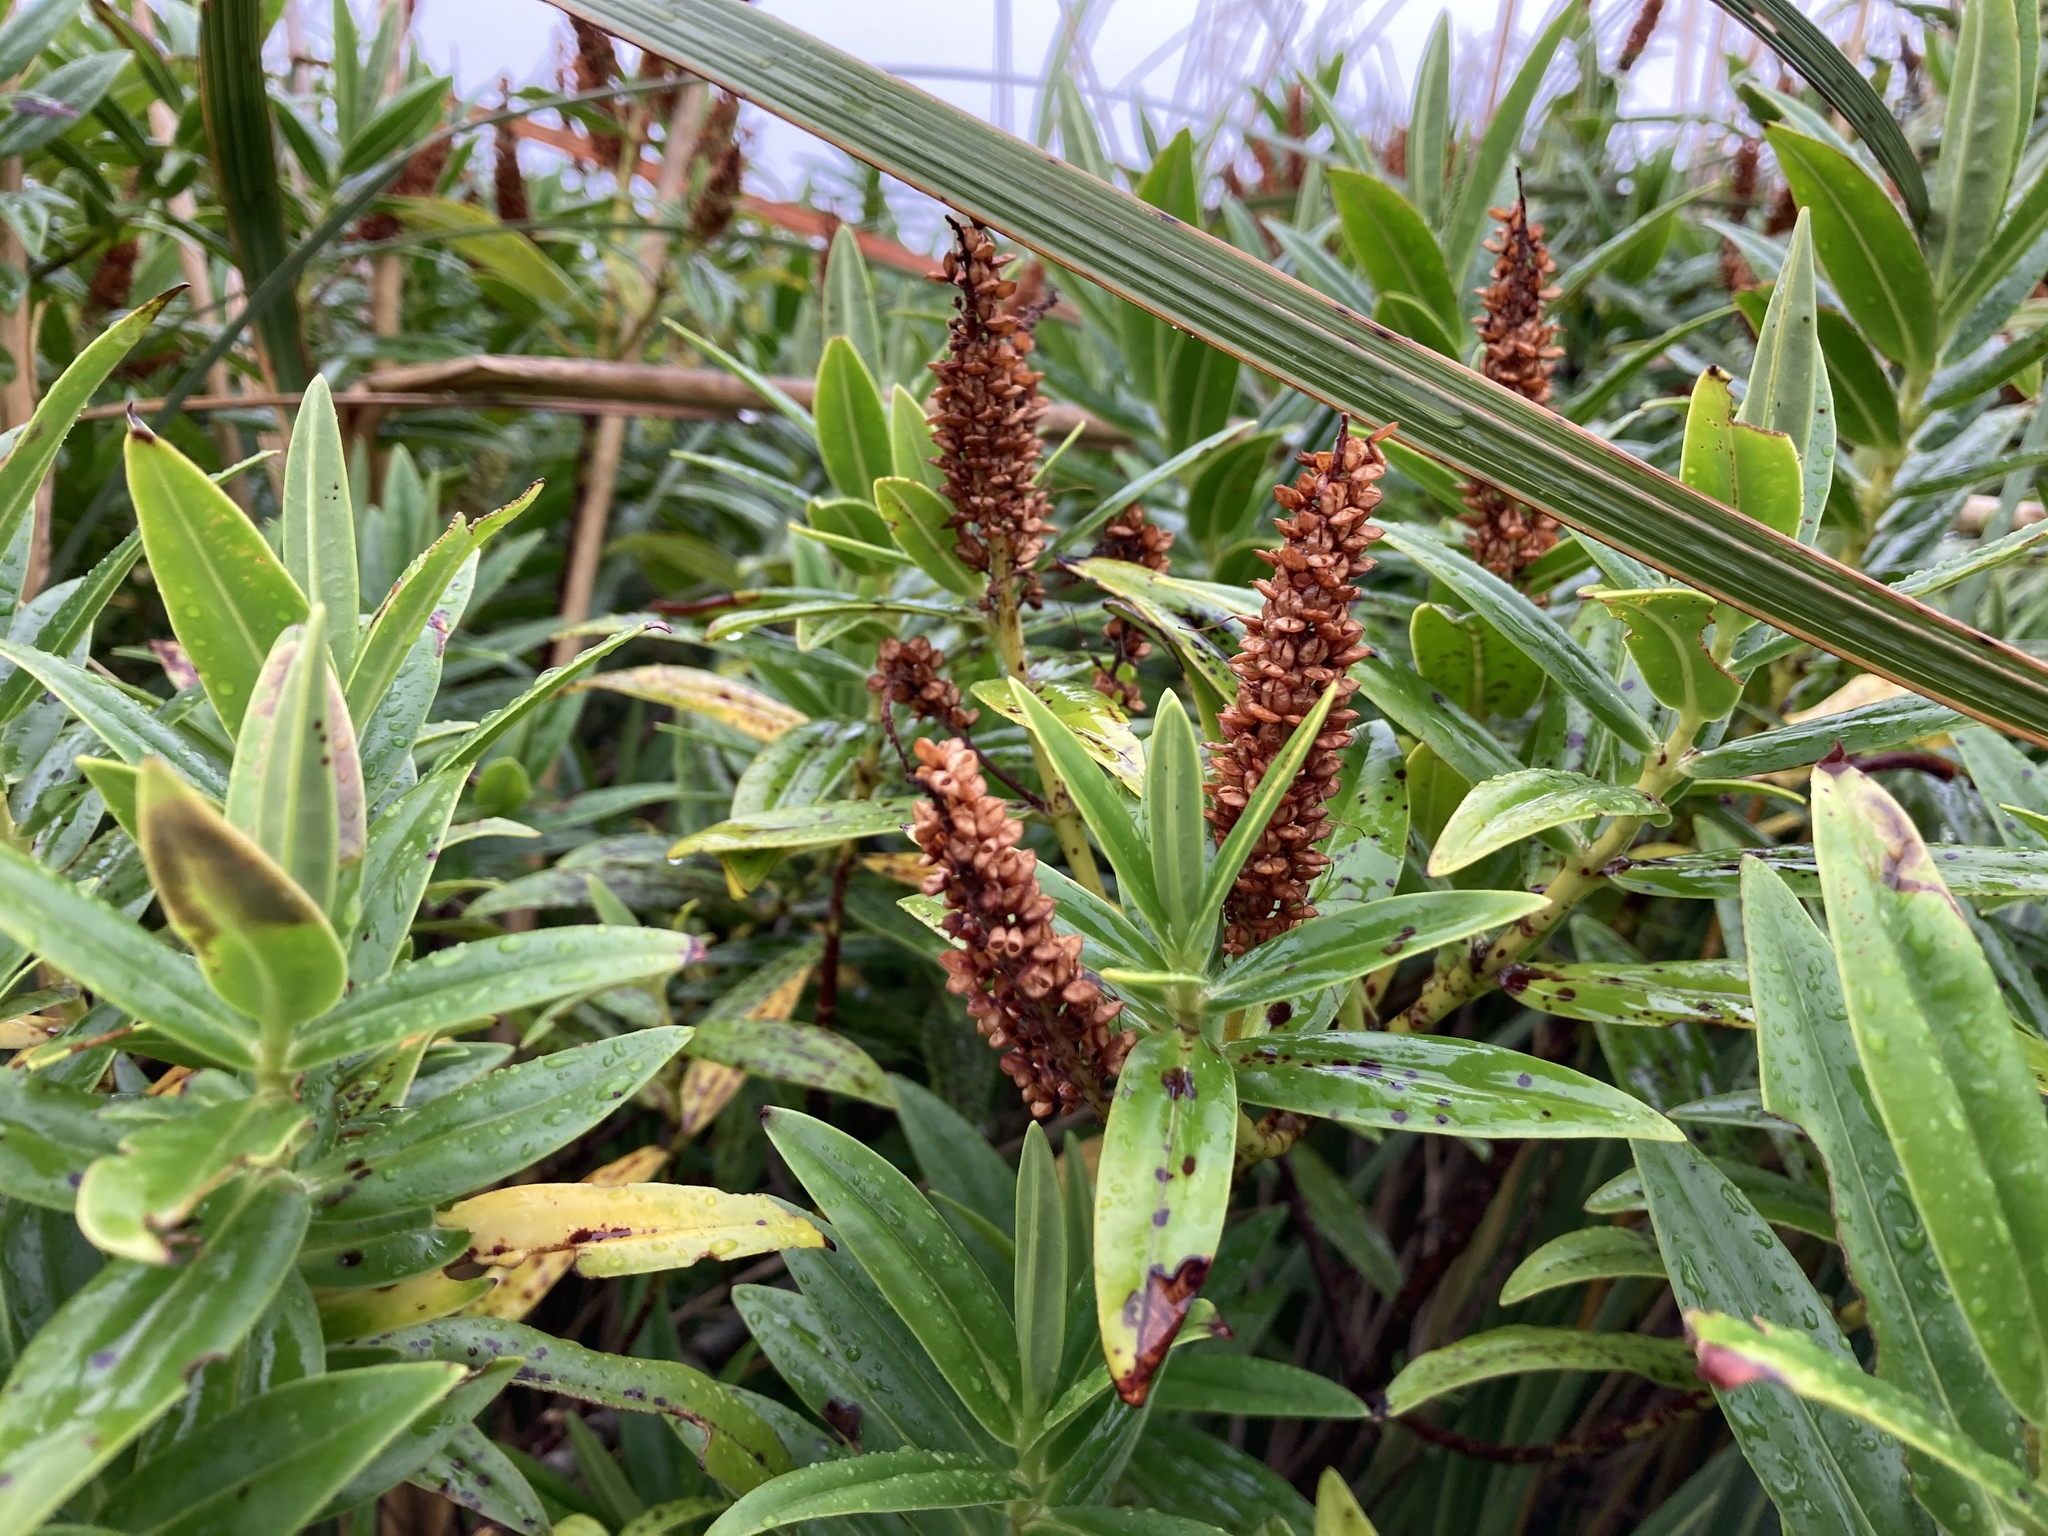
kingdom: Plantae
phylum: Tracheophyta
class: Magnoliopsida
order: Lamiales
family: Plantaginaceae
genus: Veronica
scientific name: Veronica lewisii
